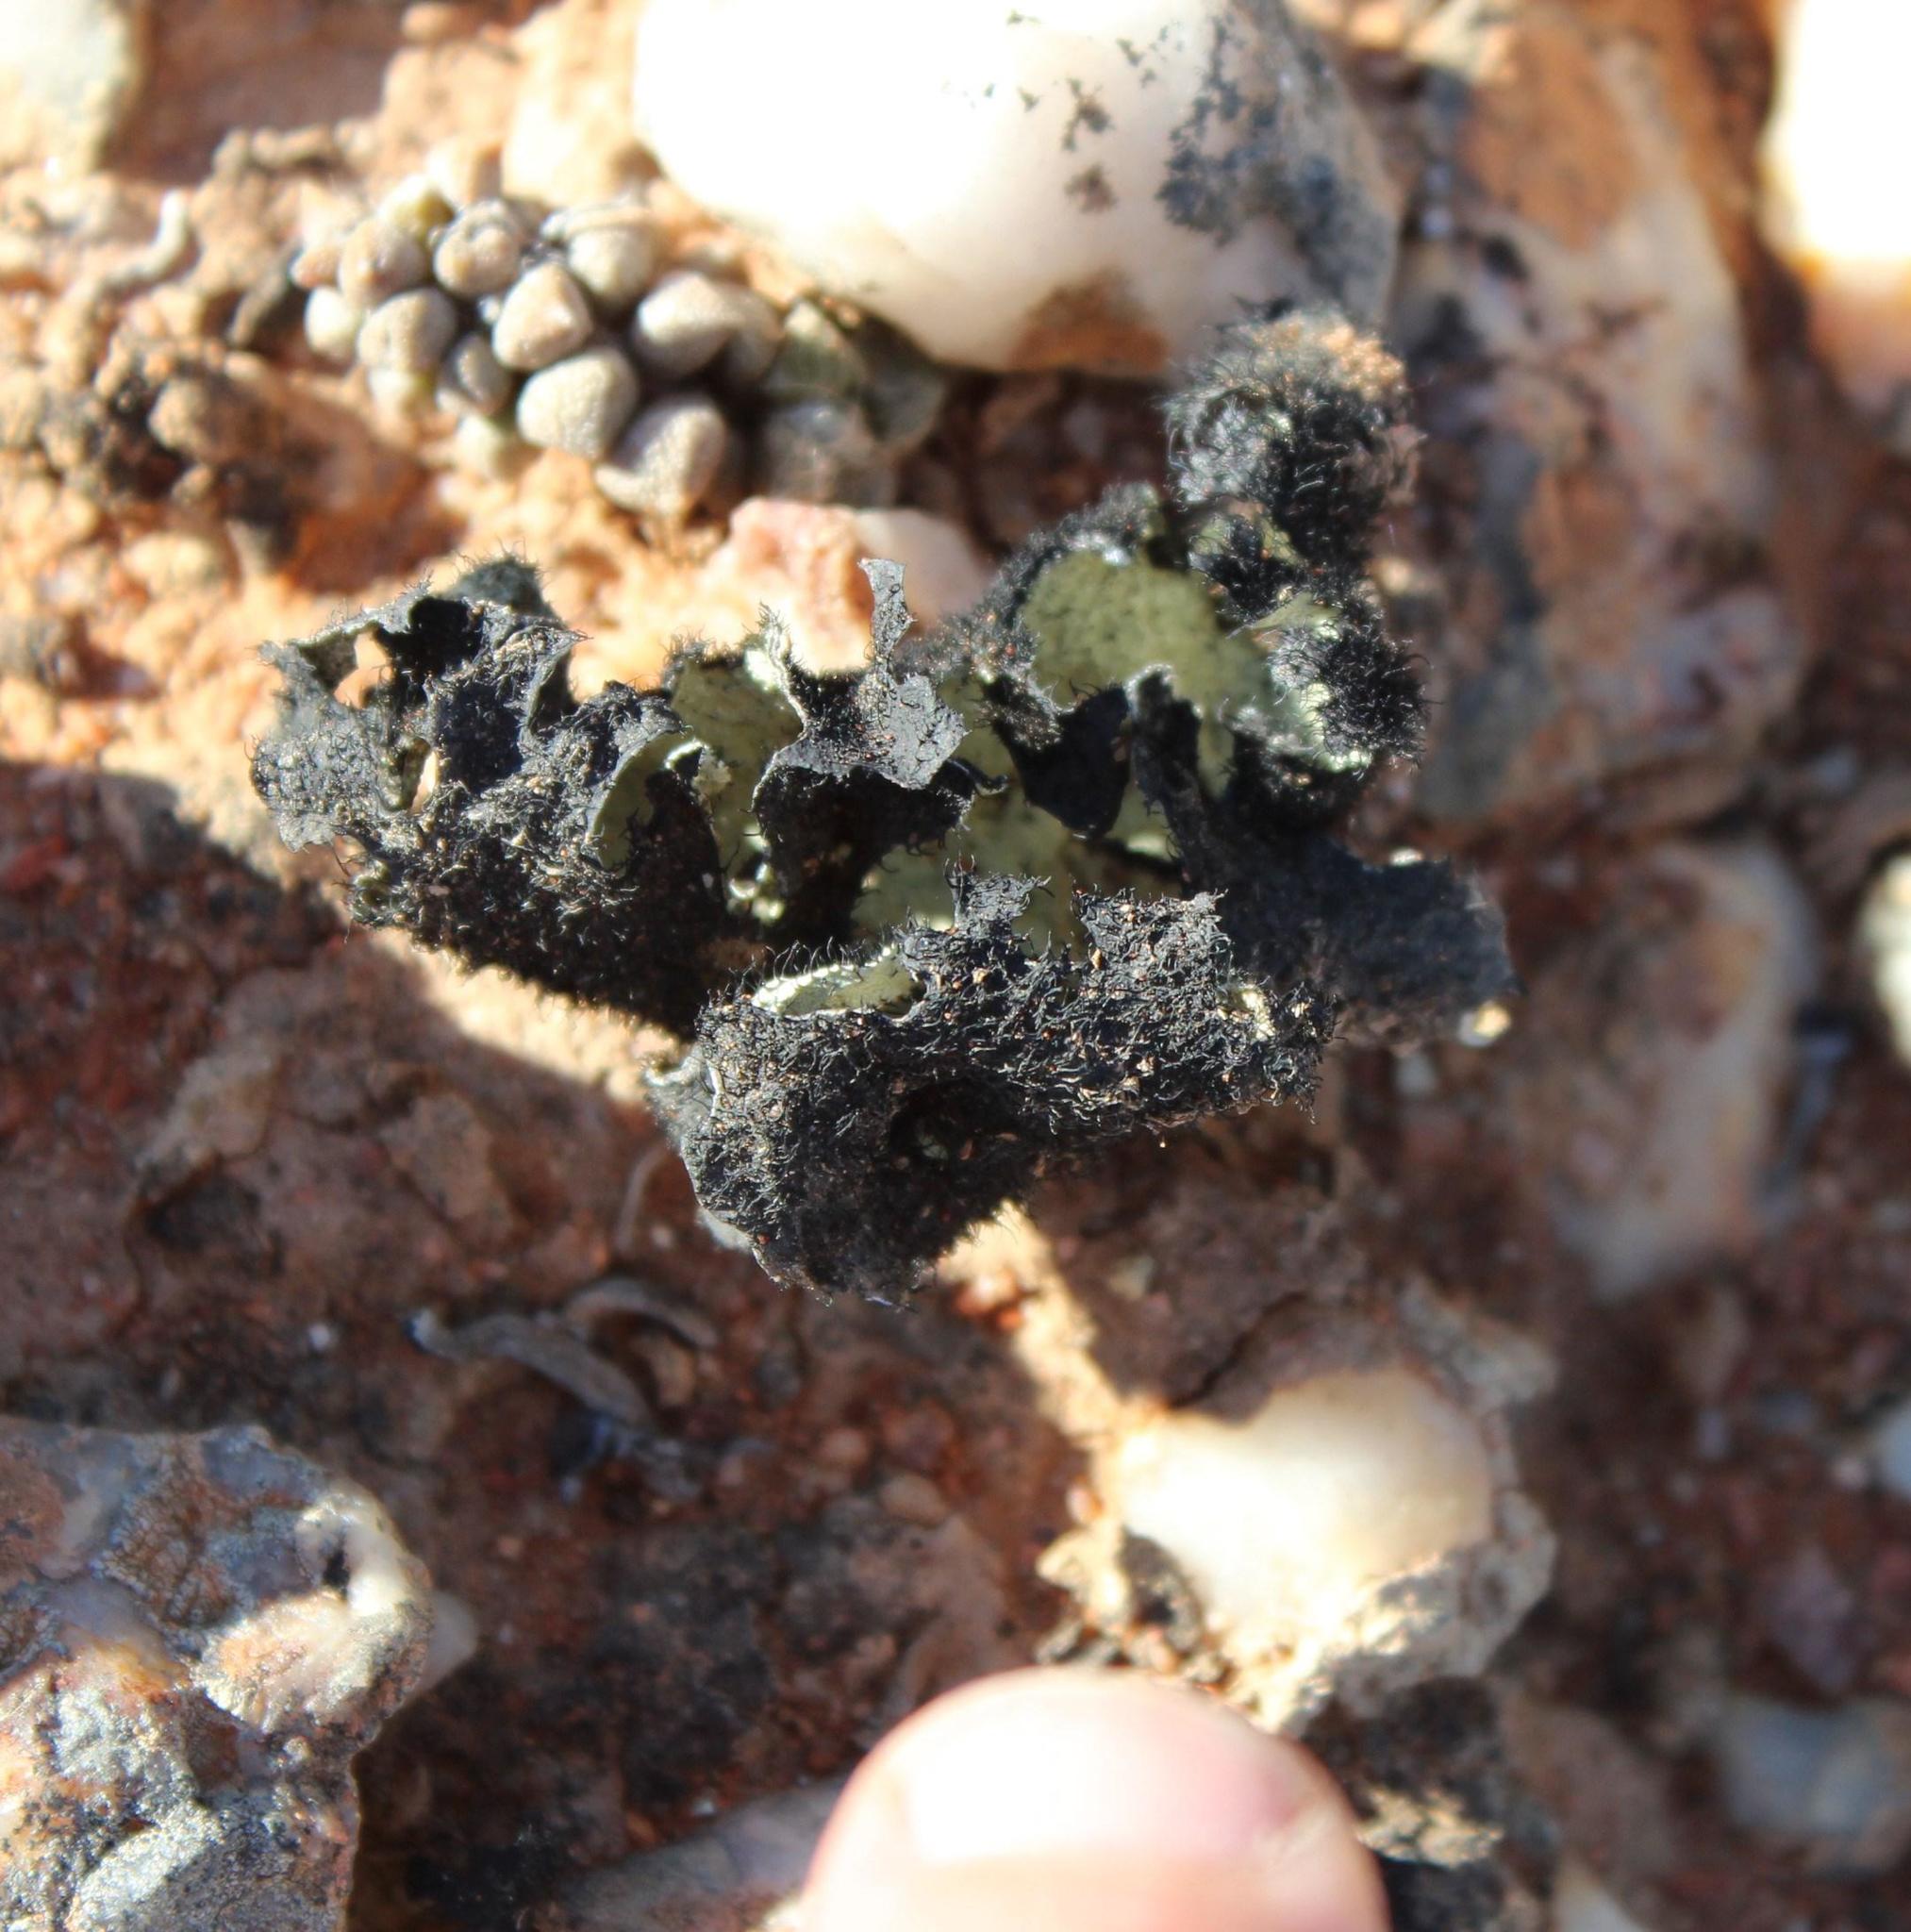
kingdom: Fungi
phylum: Ascomycota
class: Lecanoromycetes
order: Lecanorales
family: Parmeliaceae
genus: Xanthoparmelia
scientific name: Xanthoparmelia hottentotta
